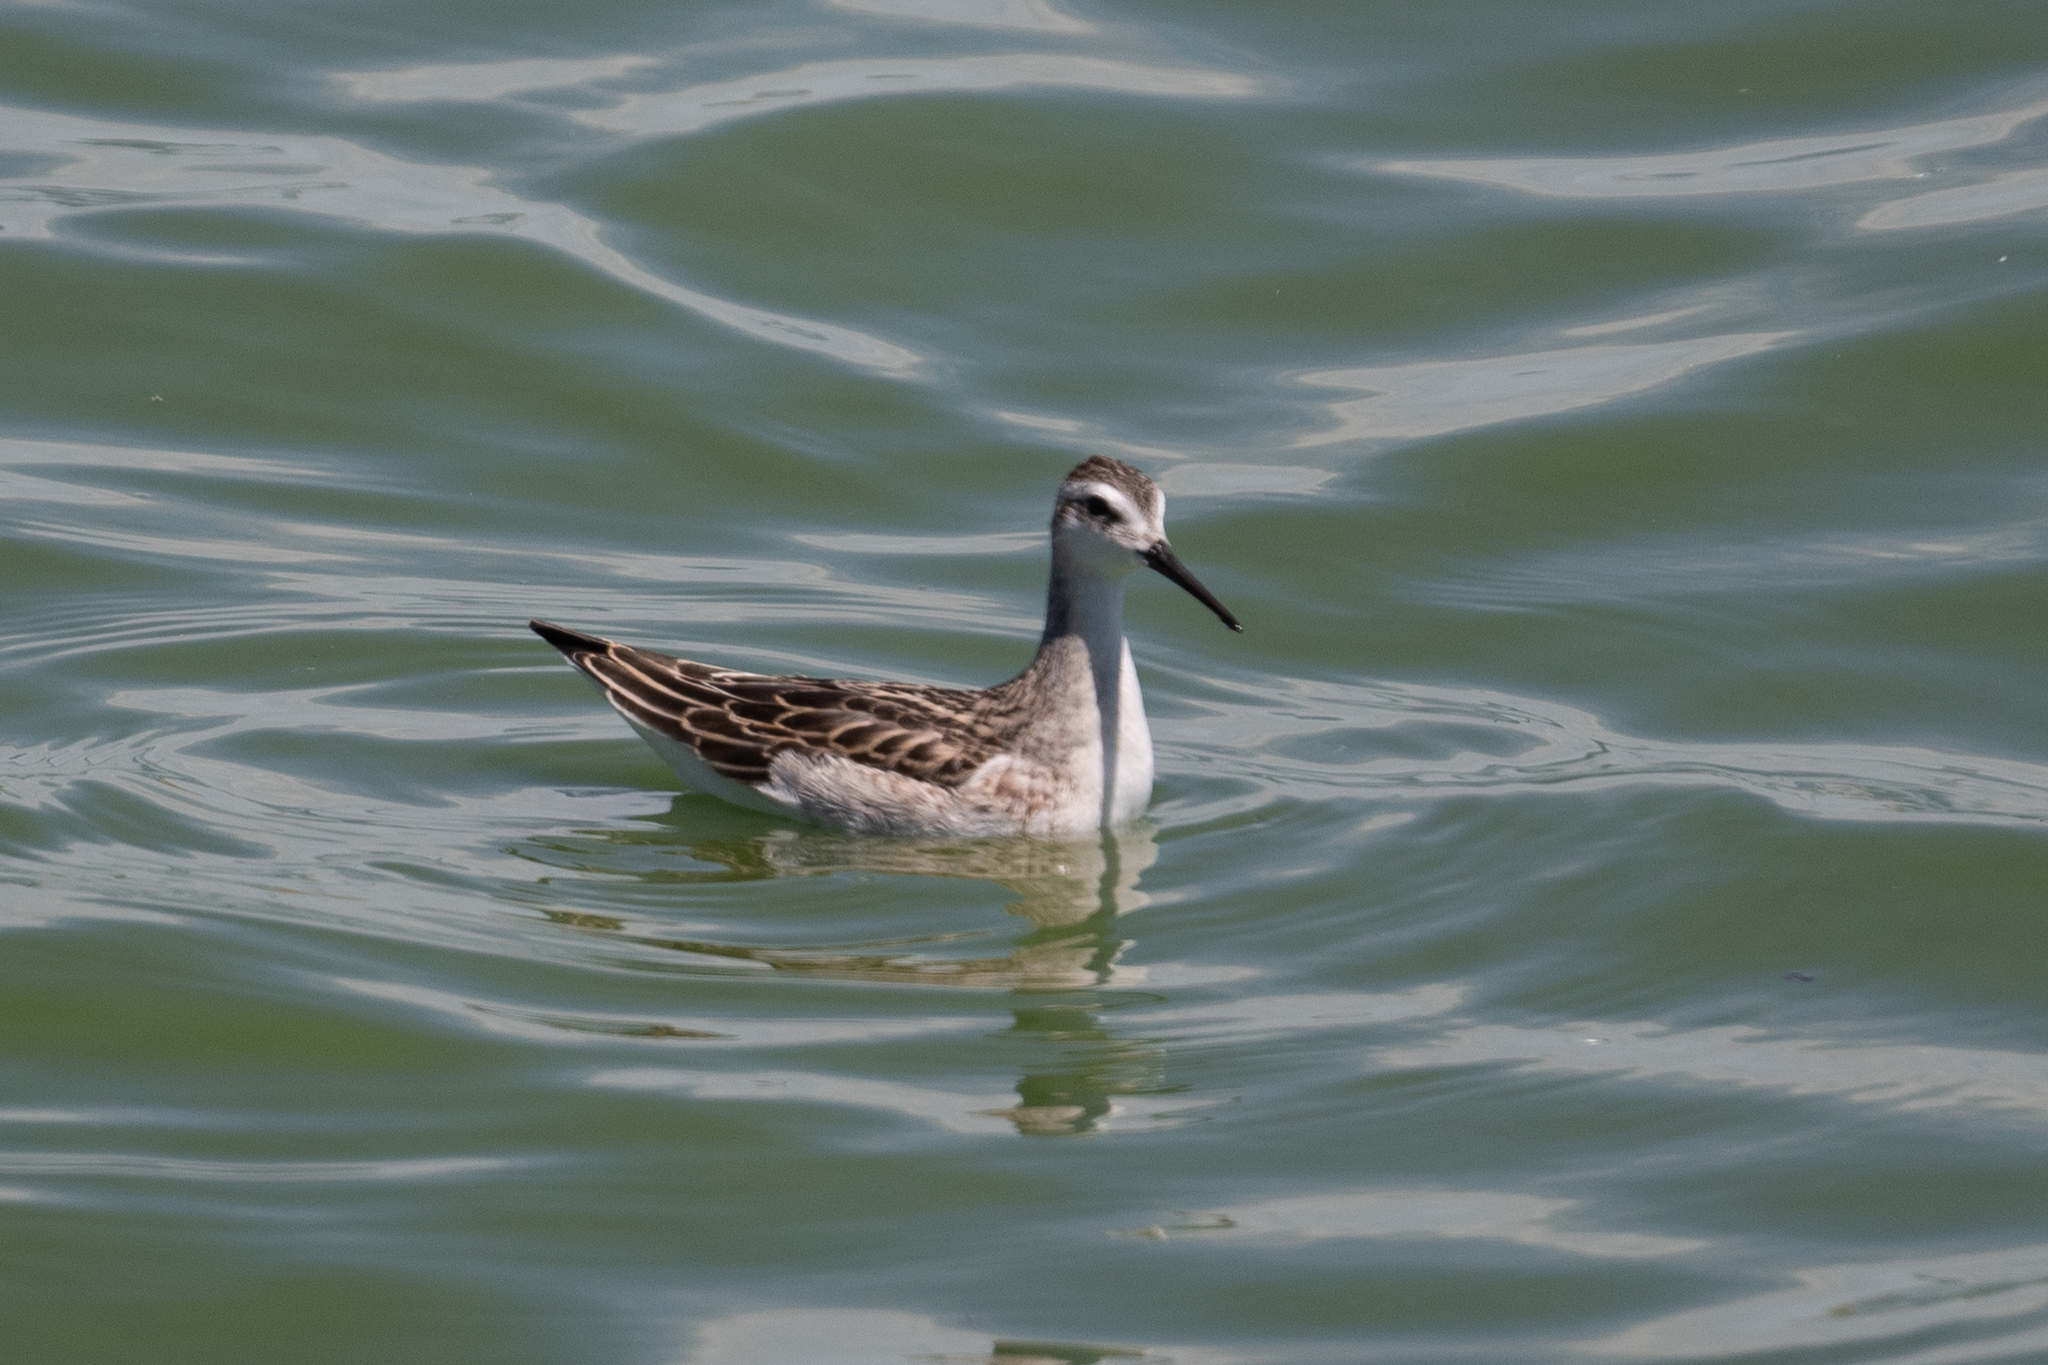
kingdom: Animalia
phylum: Chordata
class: Aves
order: Charadriiformes
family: Scolopacidae
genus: Phalaropus
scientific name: Phalaropus tricolor
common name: Wilson's phalarope
